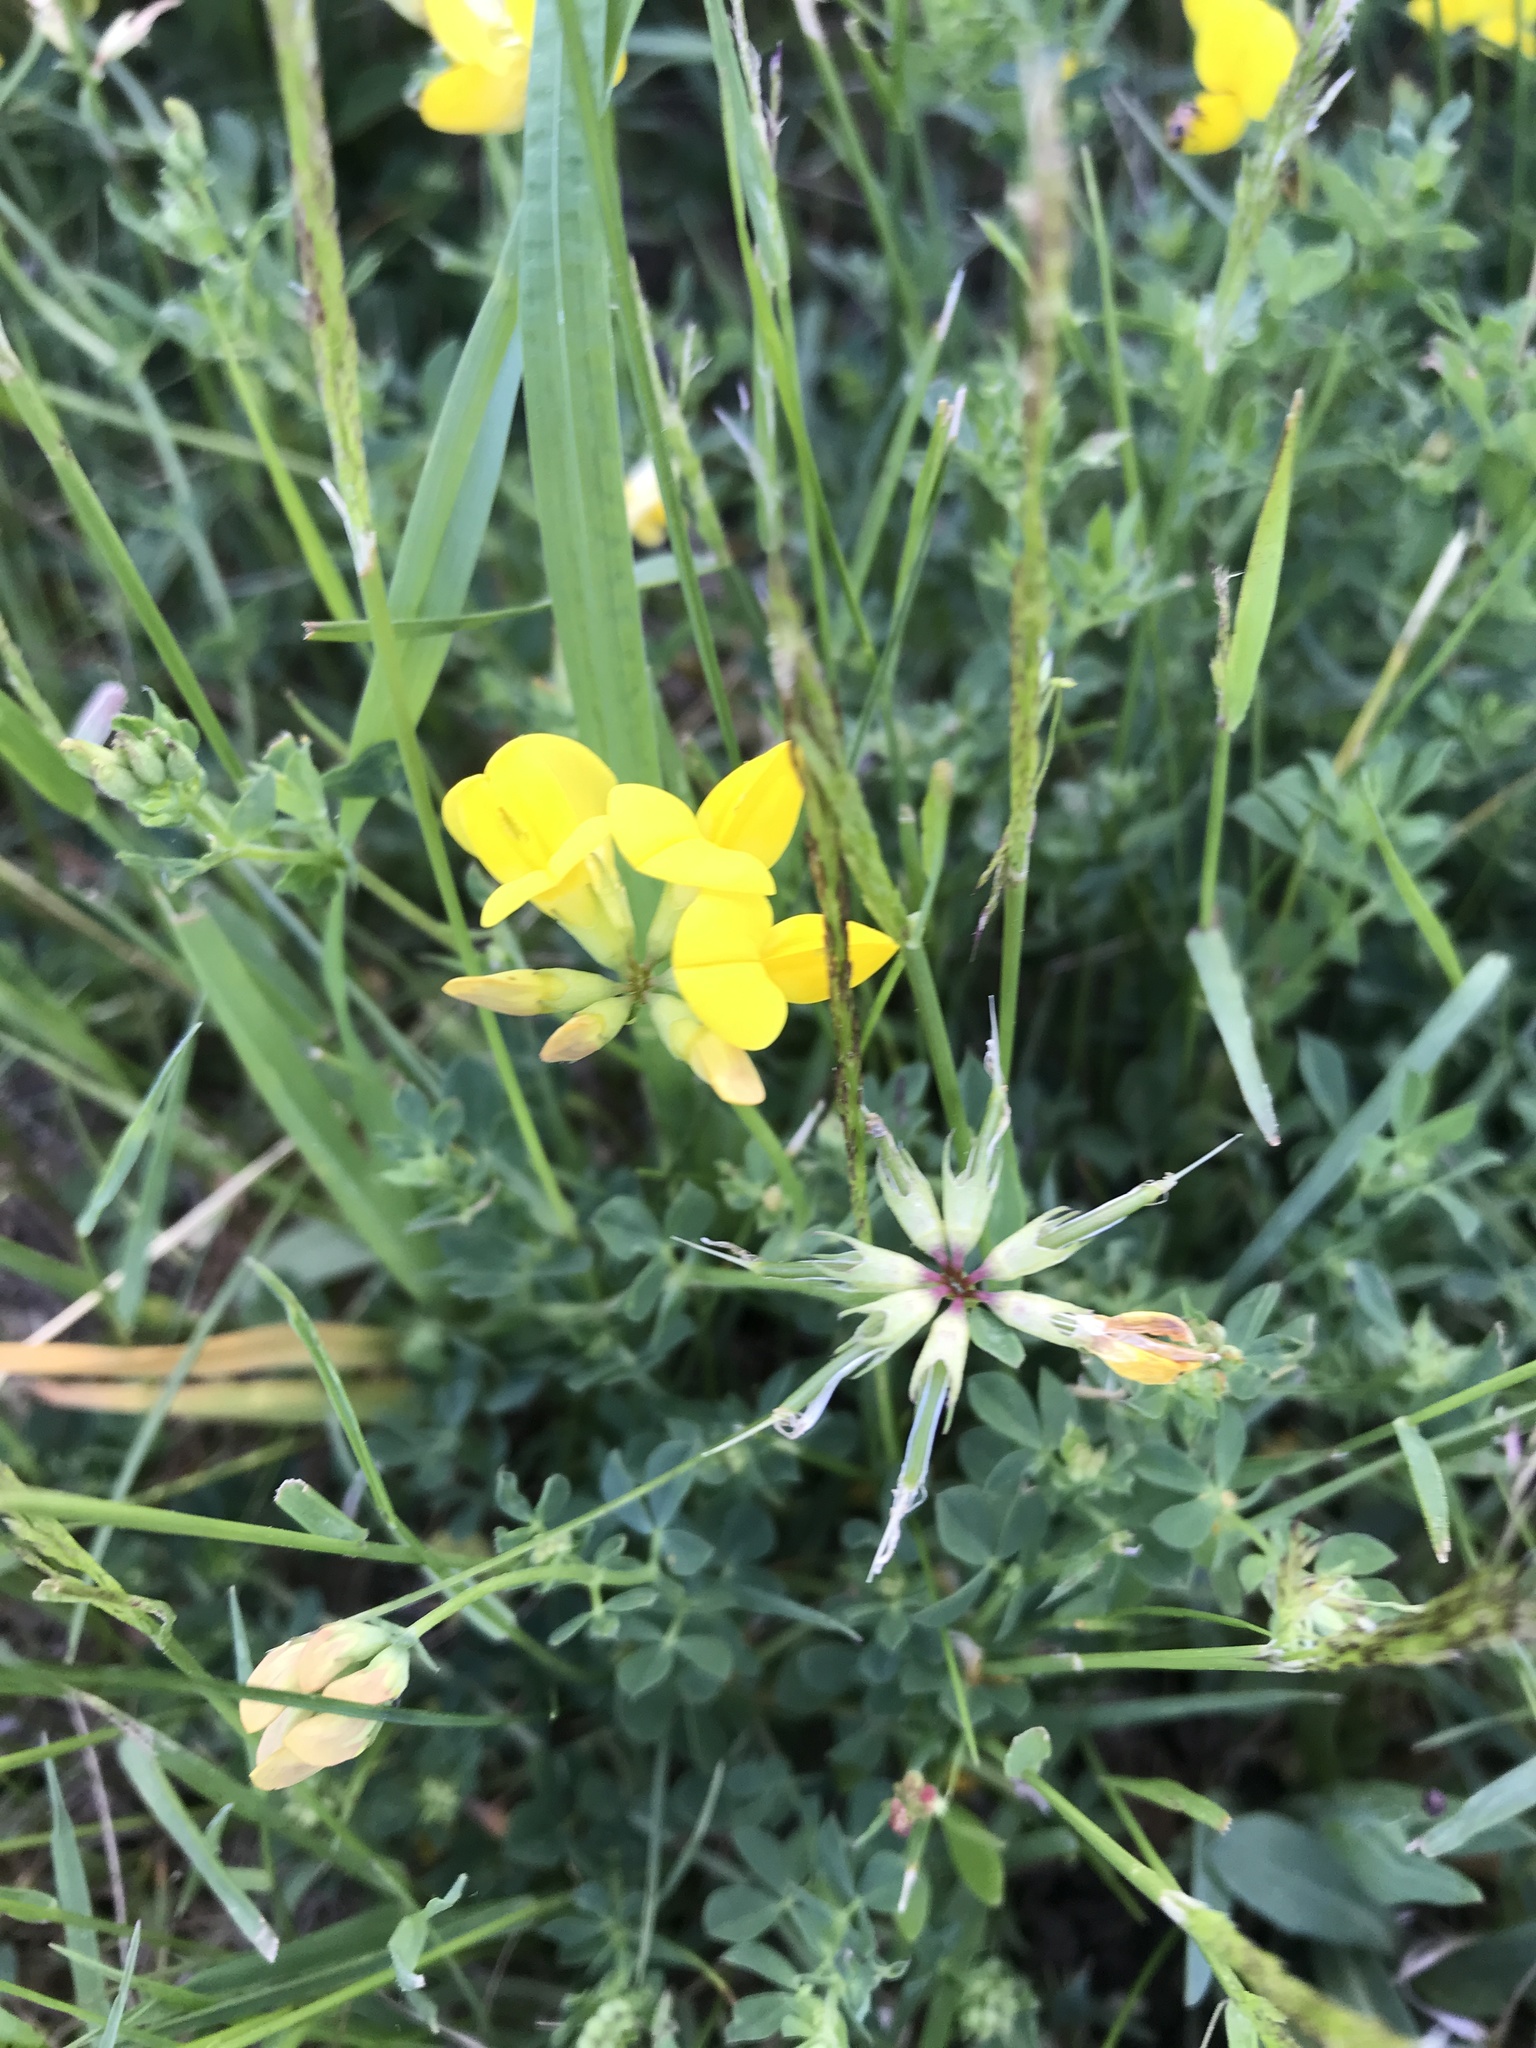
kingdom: Plantae
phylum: Tracheophyta
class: Magnoliopsida
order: Fabales
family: Fabaceae
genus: Lotus
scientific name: Lotus corniculatus
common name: Common bird's-foot-trefoil
